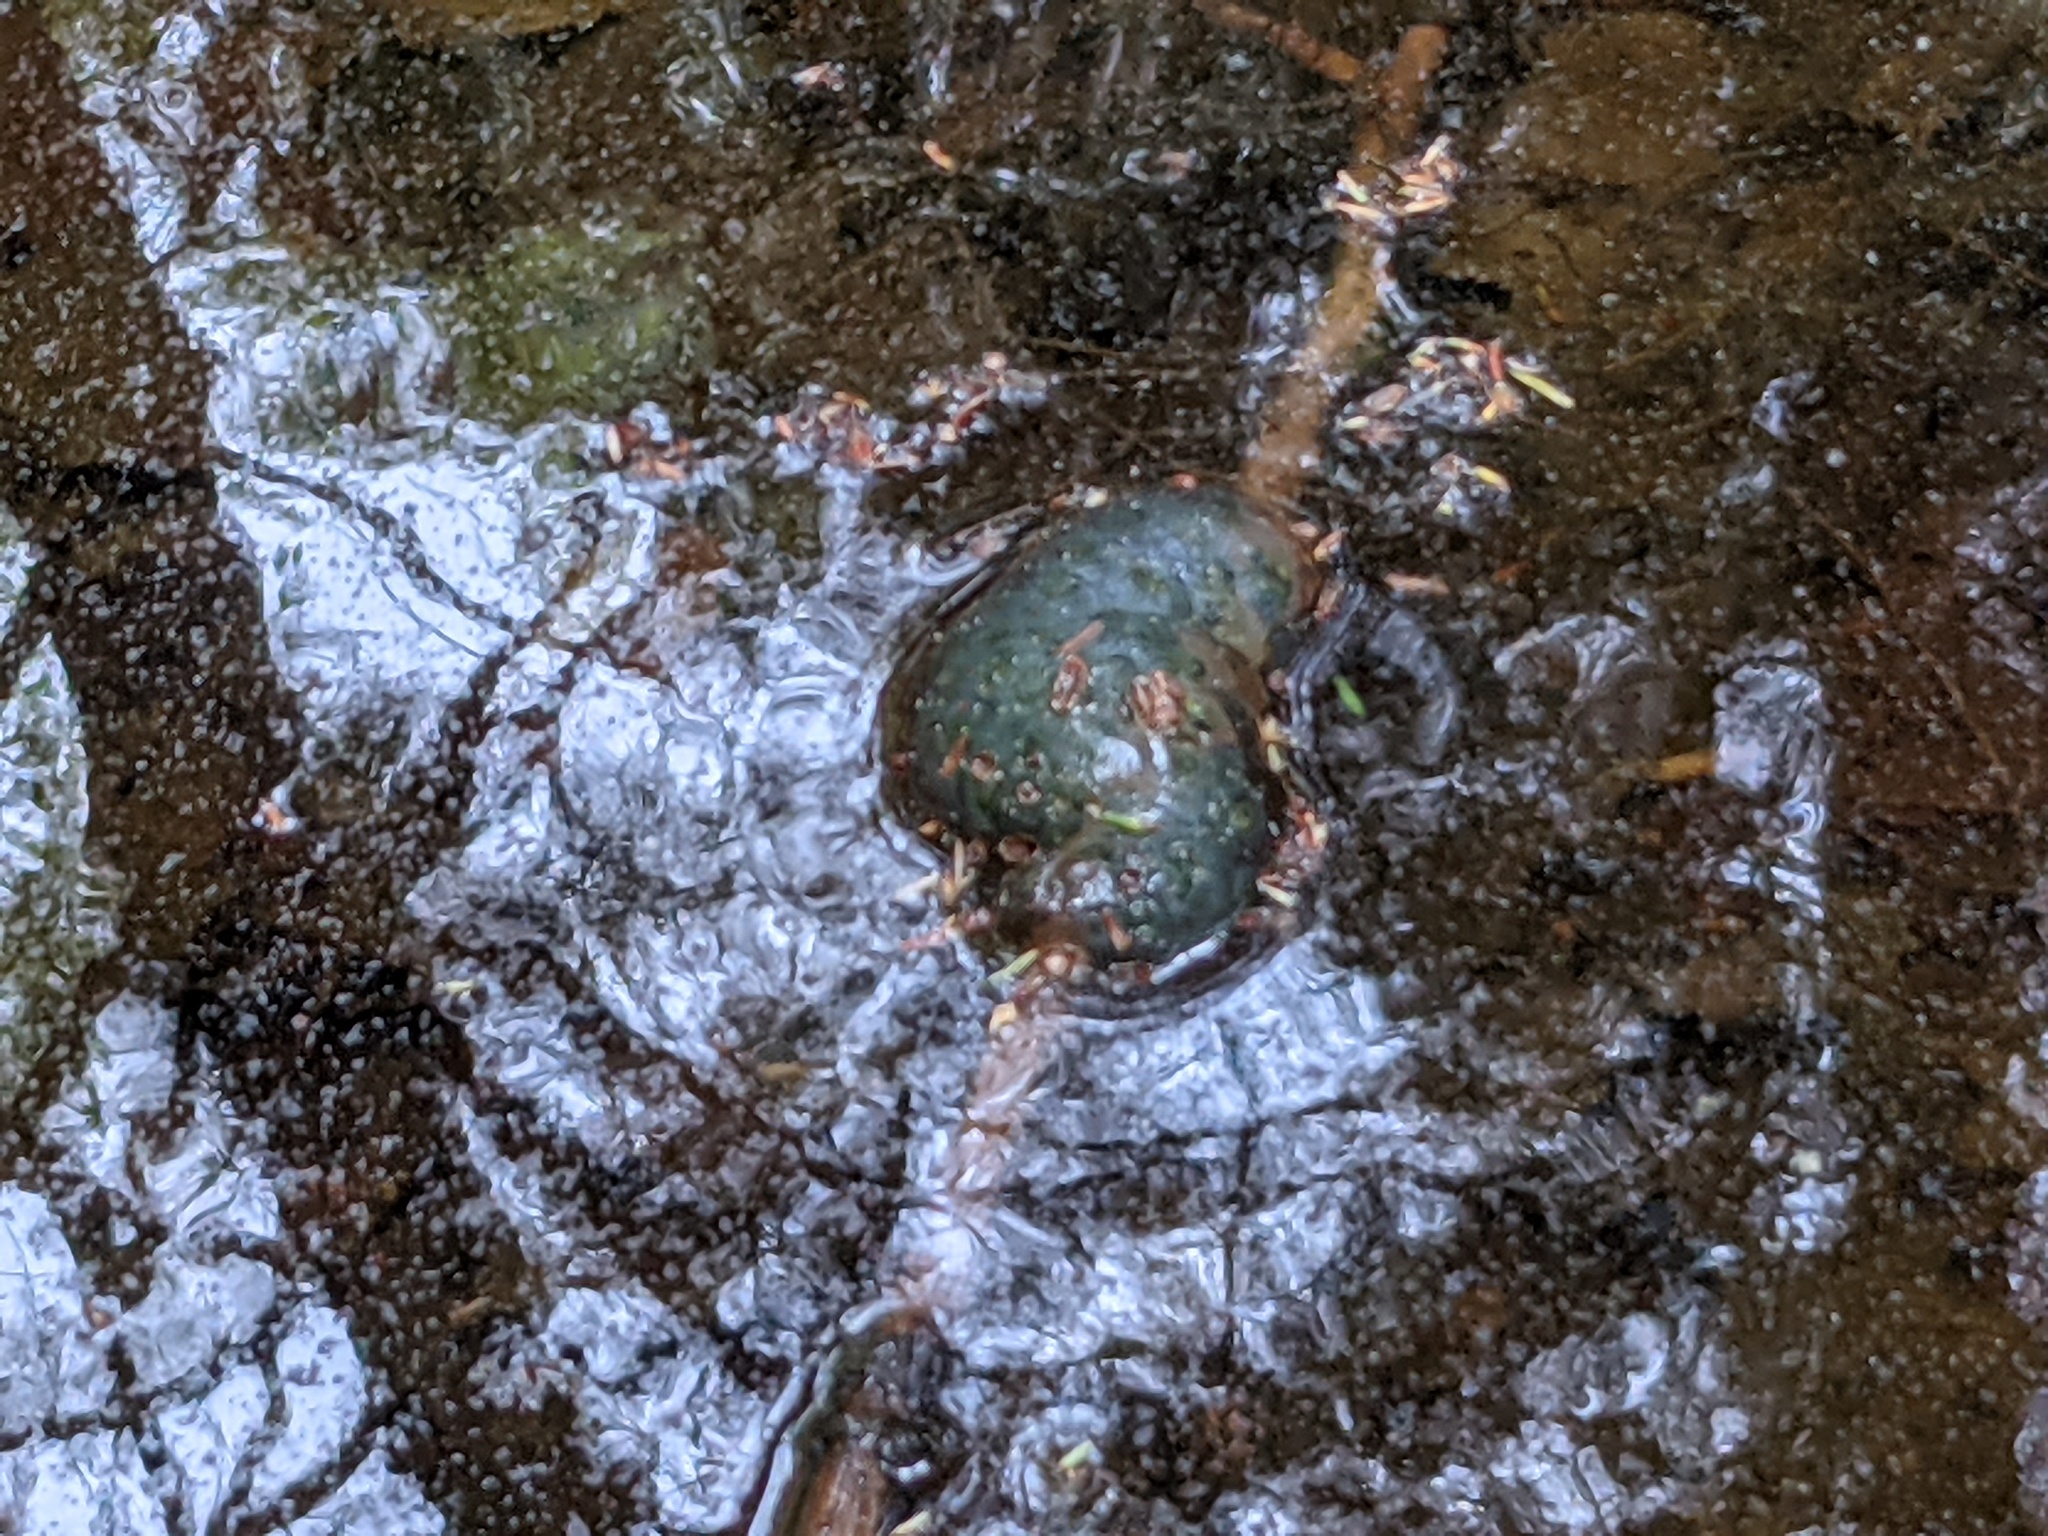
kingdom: Animalia
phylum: Chordata
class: Amphibia
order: Caudata
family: Ambystomatidae
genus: Ambystoma
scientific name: Ambystoma maculatum
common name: Spotted salamander
